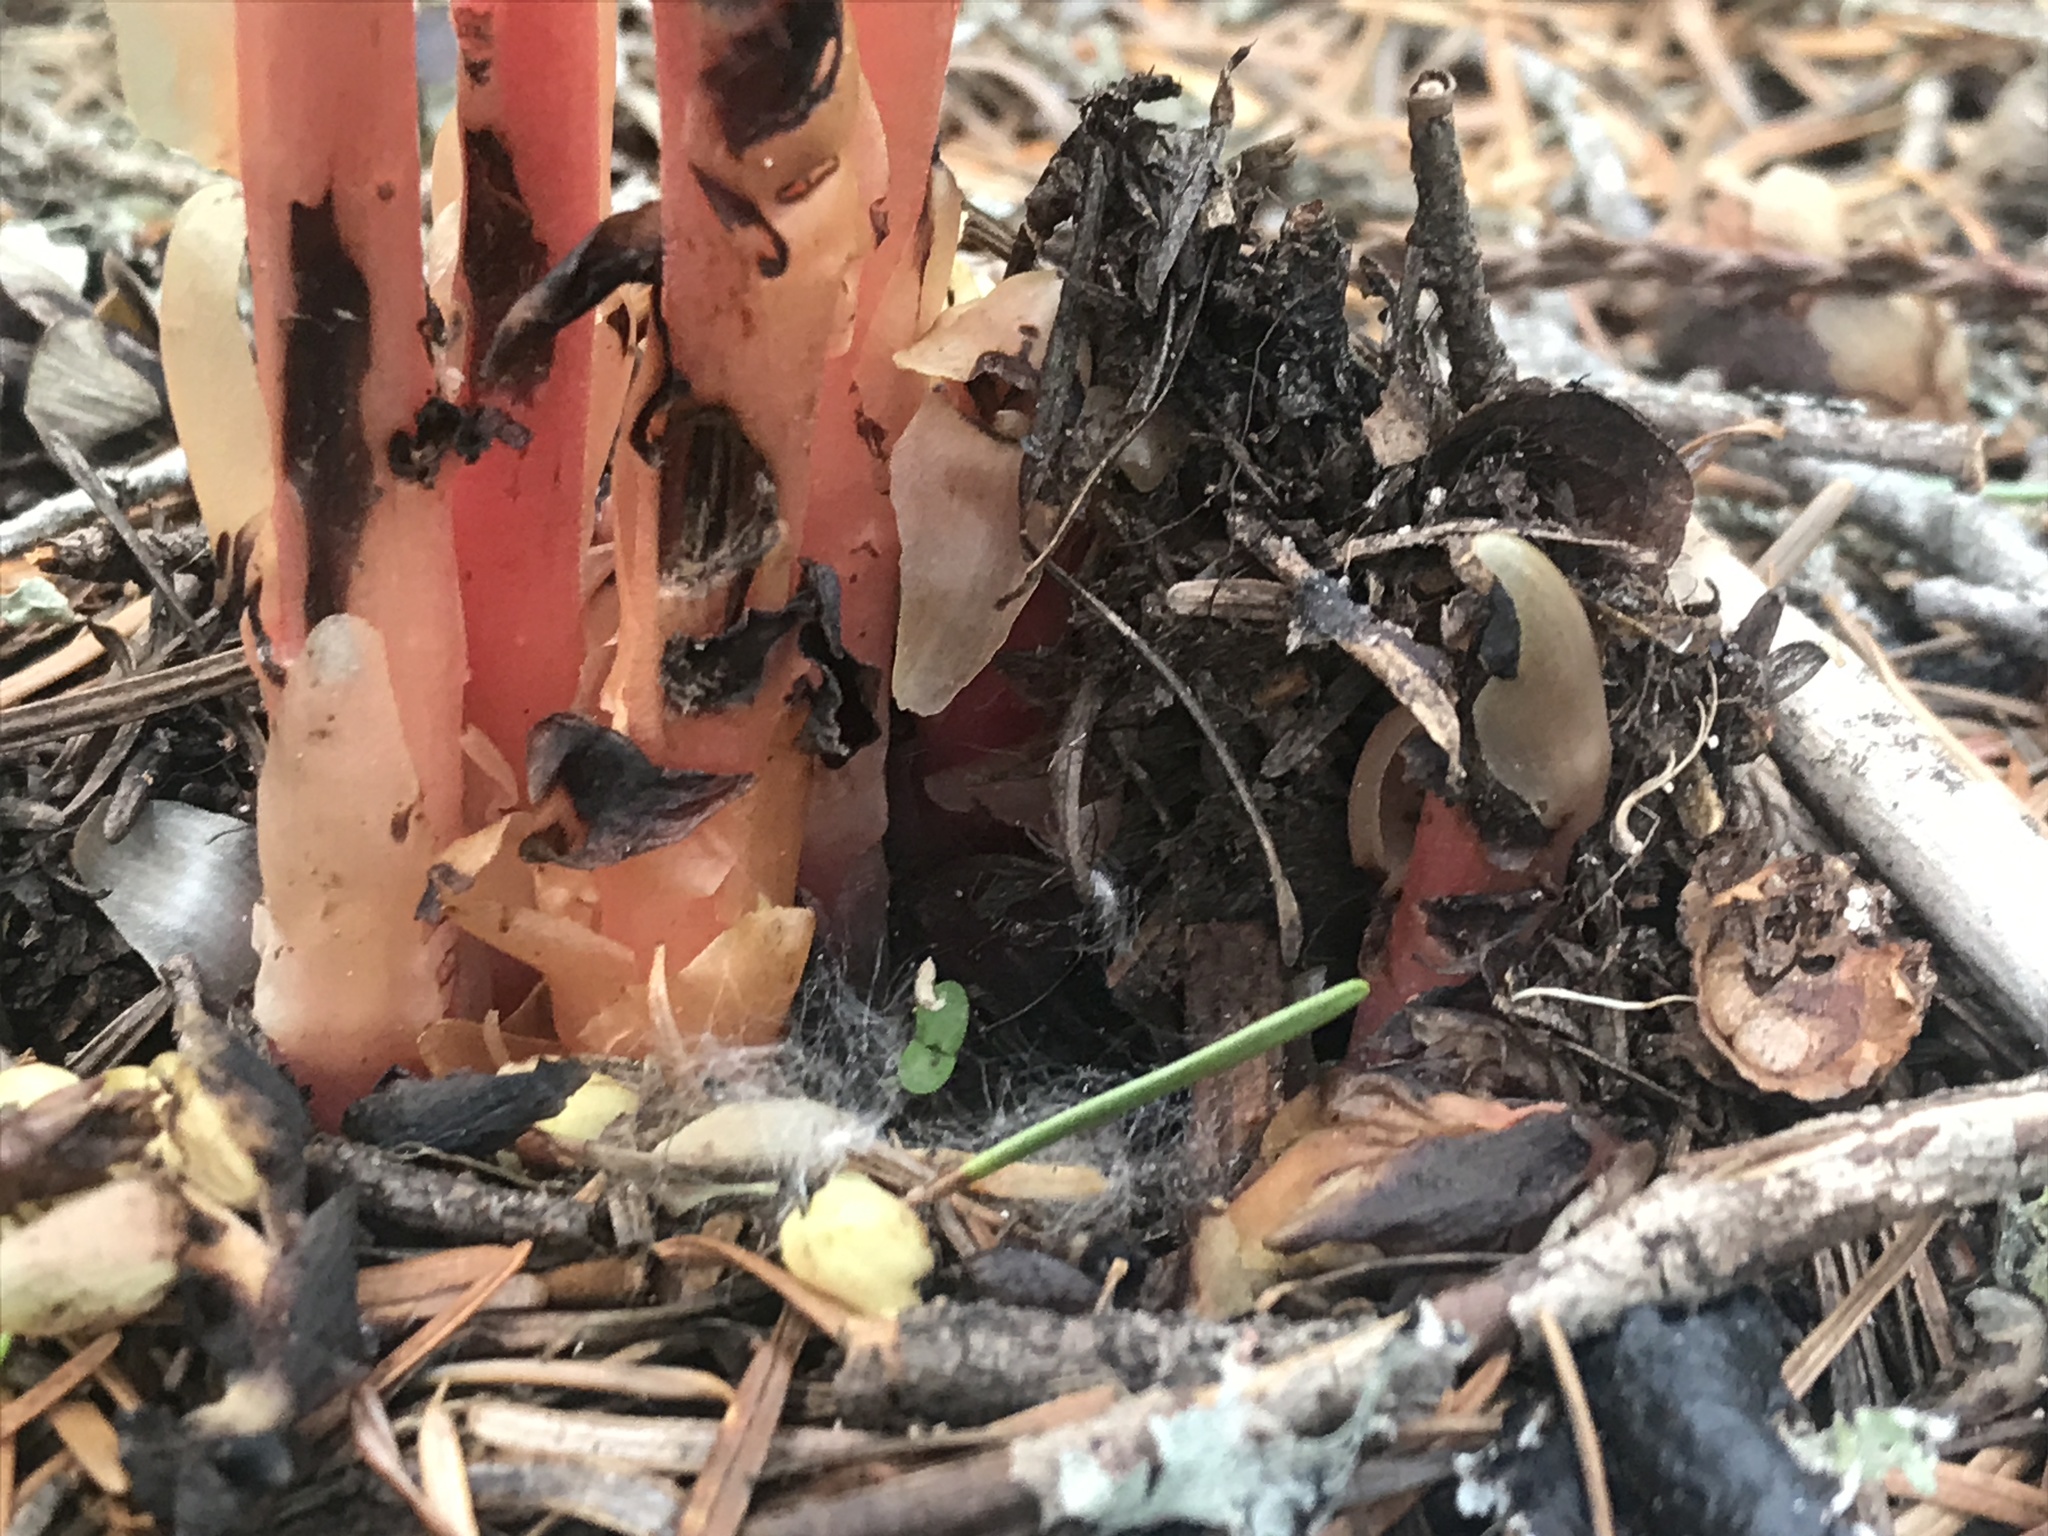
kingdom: Plantae
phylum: Tracheophyta
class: Magnoliopsida
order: Ericales
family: Ericaceae
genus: Hypopitys
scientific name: Hypopitys monotropa
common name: Yellow bird's-nest
